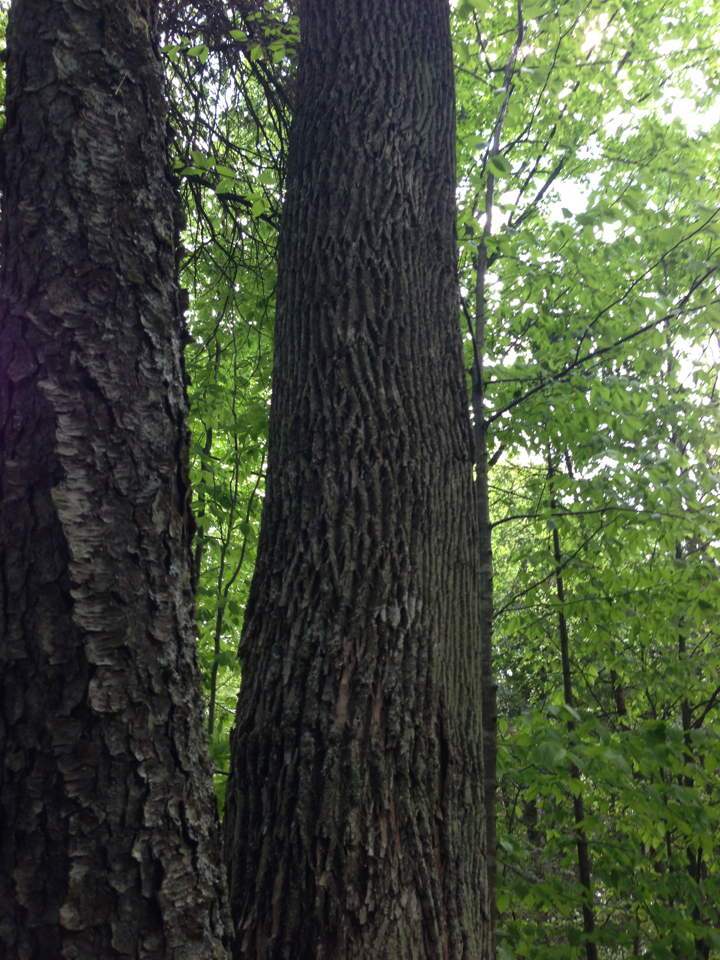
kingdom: Plantae
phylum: Tracheophyta
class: Magnoliopsida
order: Lamiales
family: Oleaceae
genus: Fraxinus
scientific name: Fraxinus americana
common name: White ash
